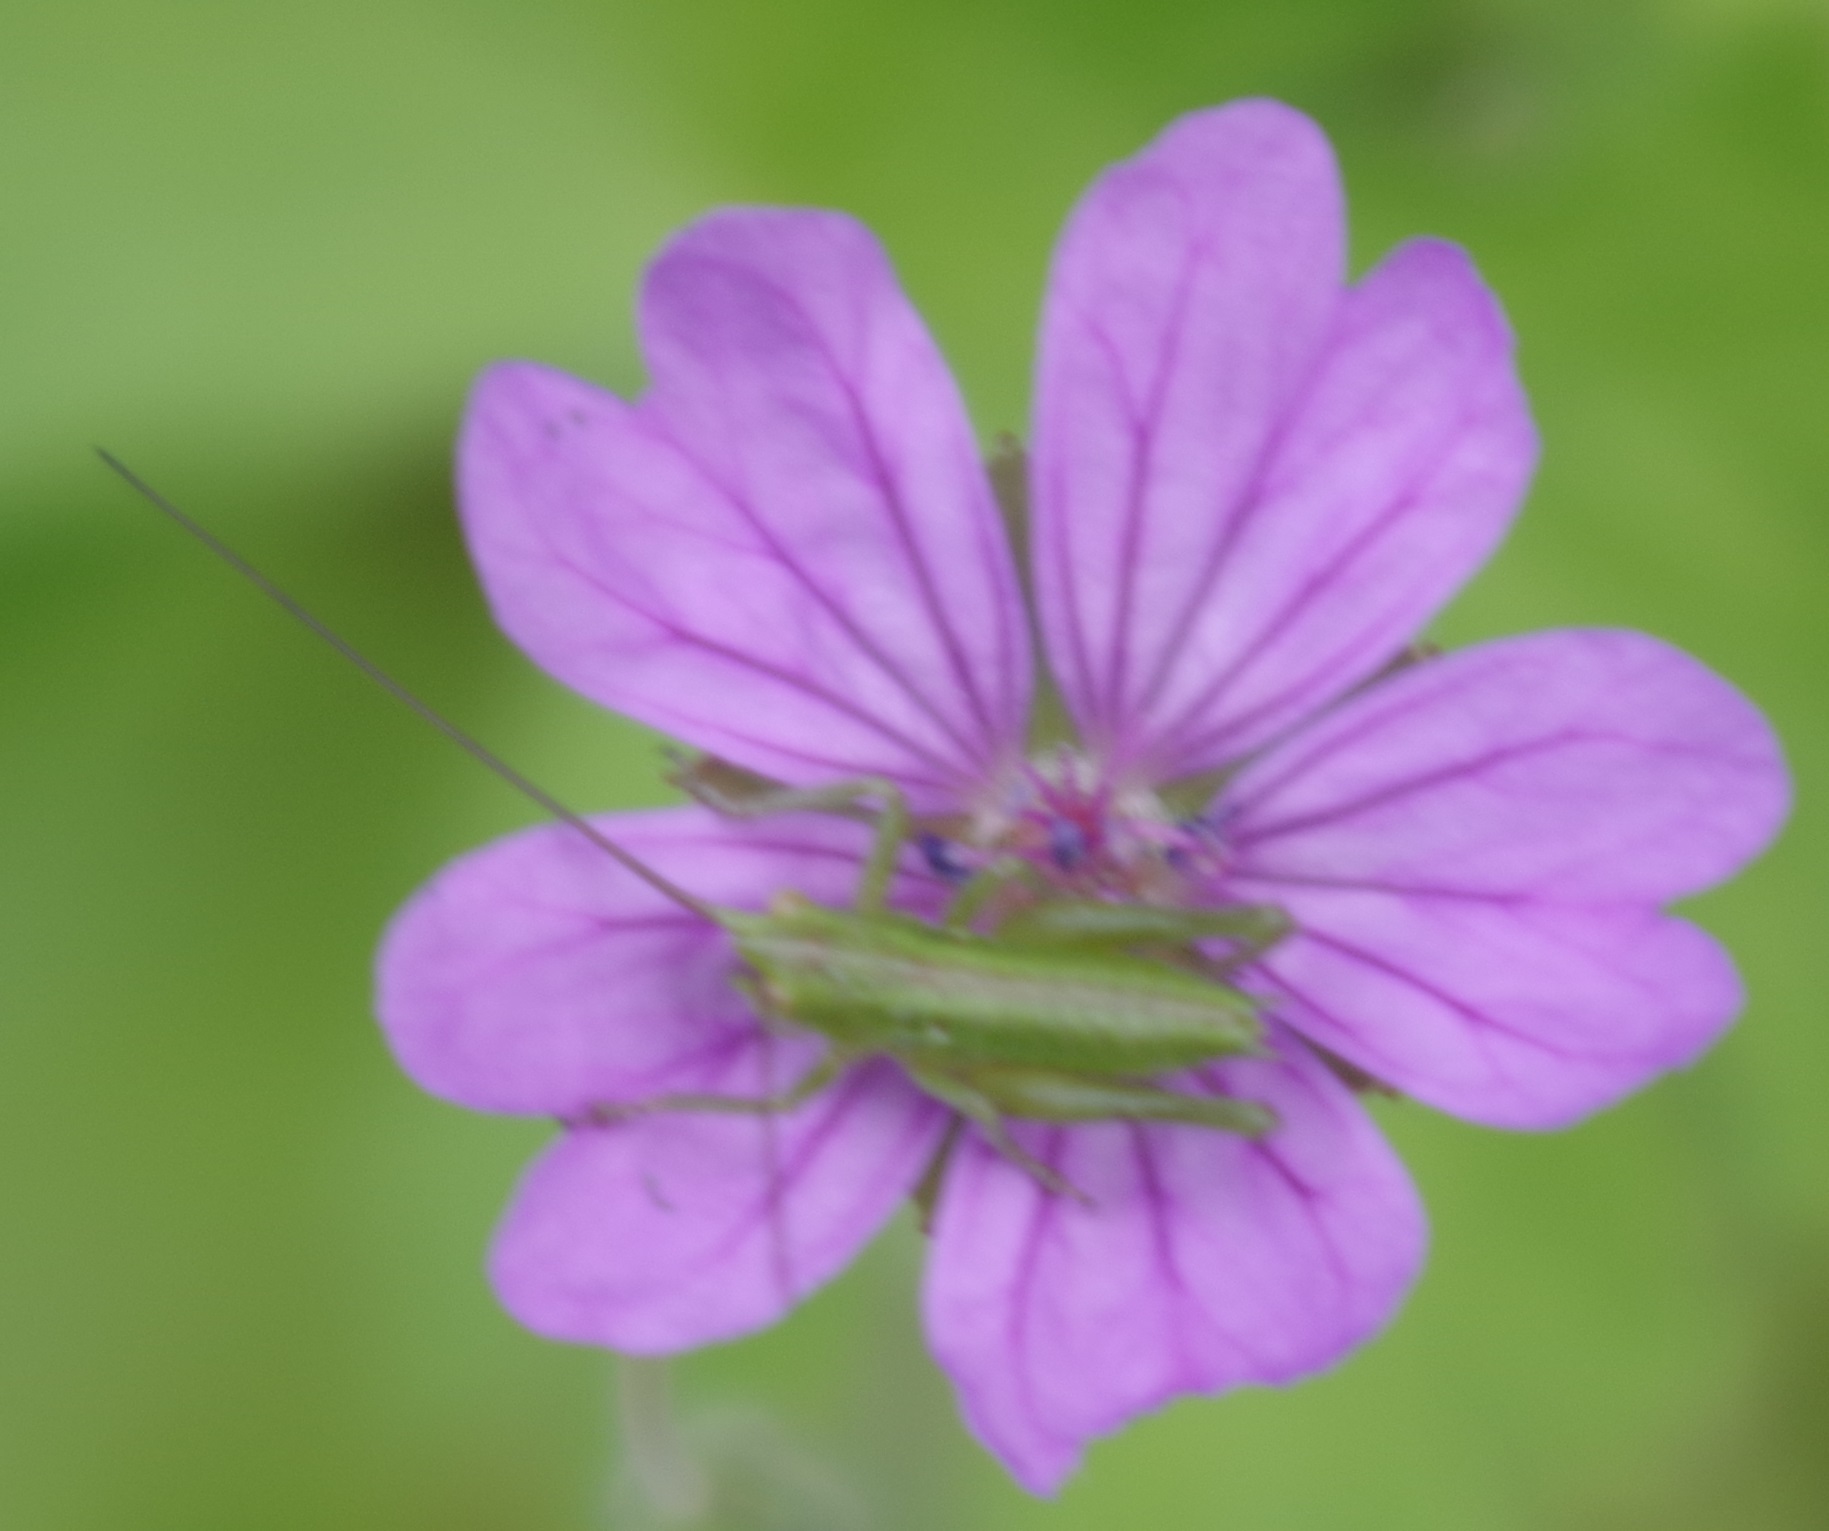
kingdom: Animalia
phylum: Arthropoda
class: Insecta
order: Orthoptera
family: Tettigoniidae
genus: Tettigonia
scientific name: Tettigonia viridissima
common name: Great green bush-cricket
